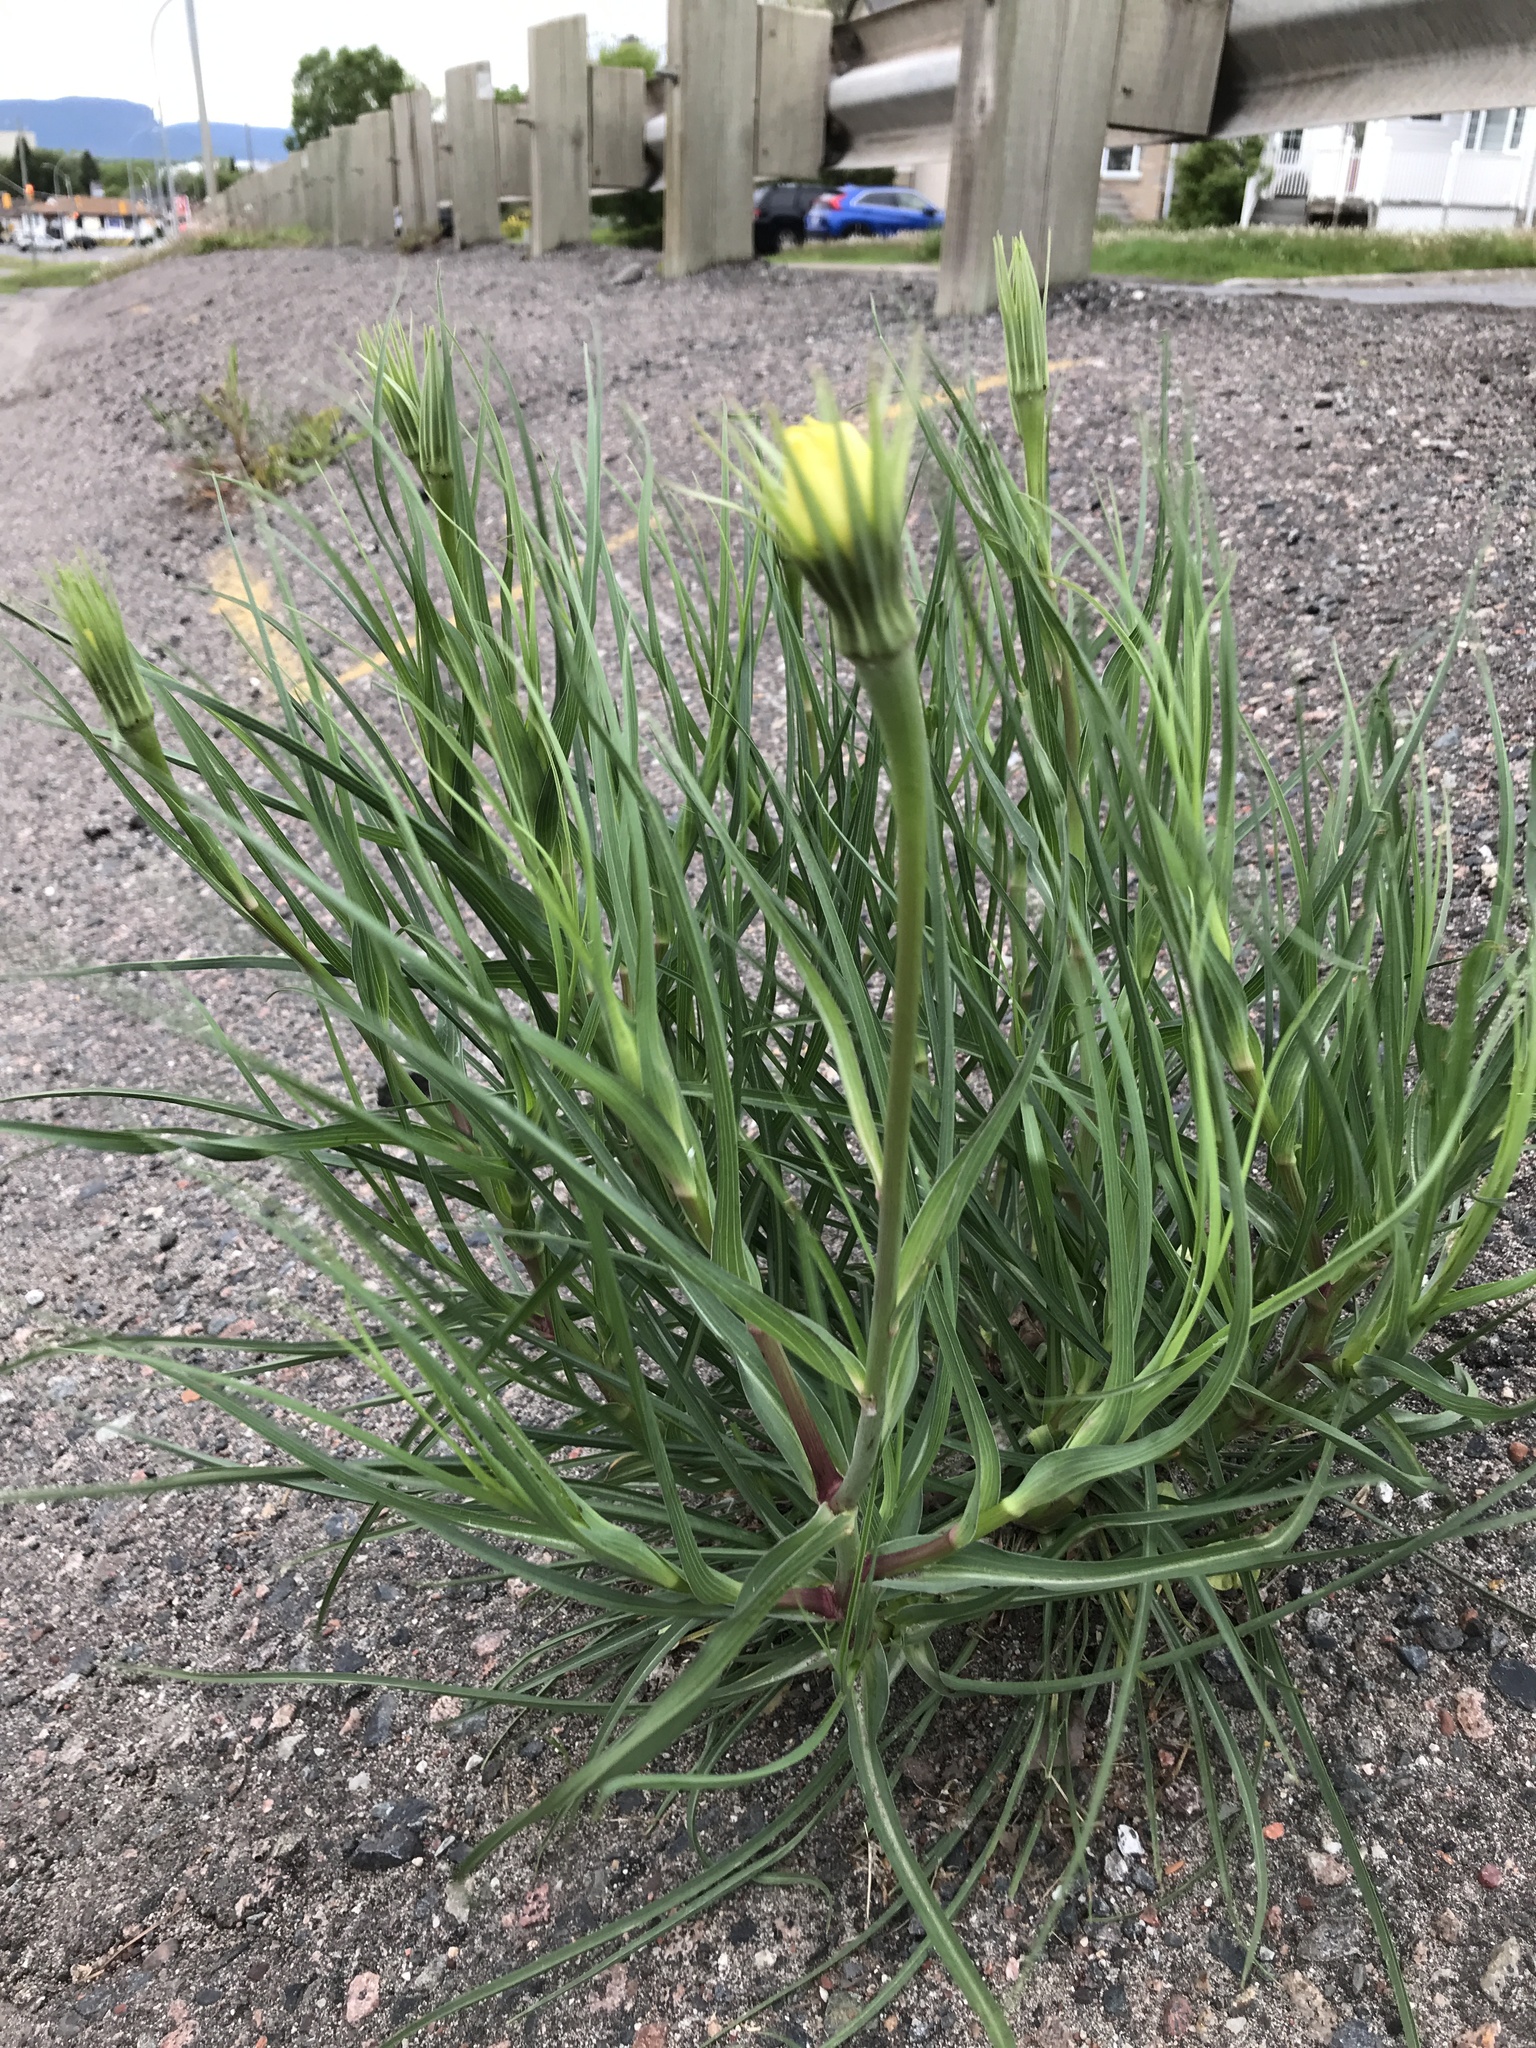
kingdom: Plantae
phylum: Tracheophyta
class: Magnoliopsida
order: Asterales
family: Asteraceae
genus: Tragopogon
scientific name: Tragopogon dubius
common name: Yellow salsify
